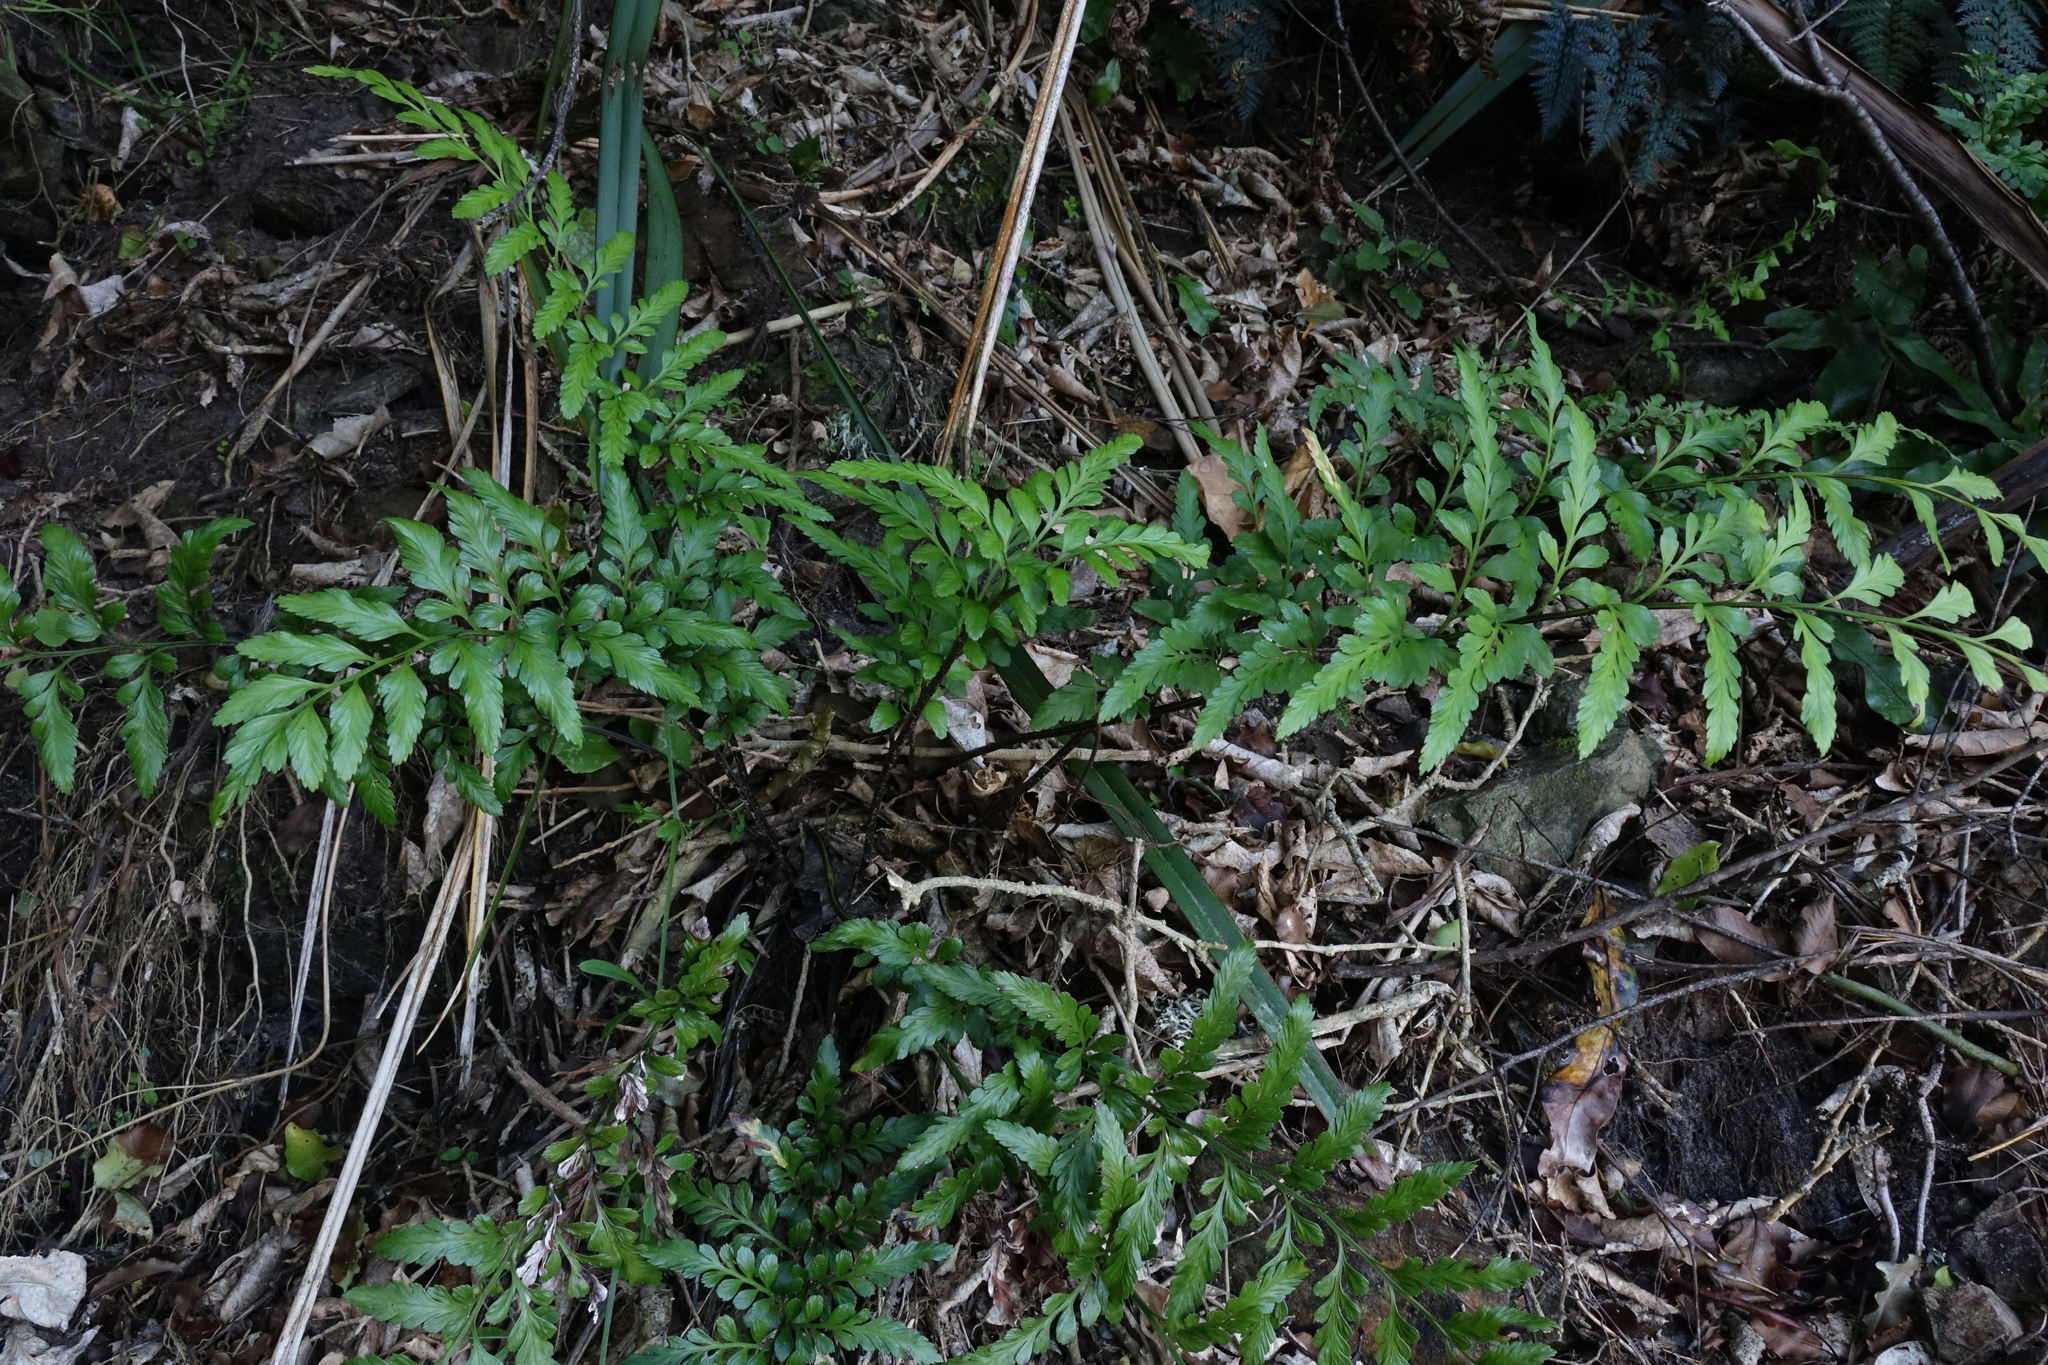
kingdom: Plantae
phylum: Tracheophyta
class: Polypodiopsida
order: Polypodiales
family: Aspleniaceae
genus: Asplenium
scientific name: Asplenium lyallii
